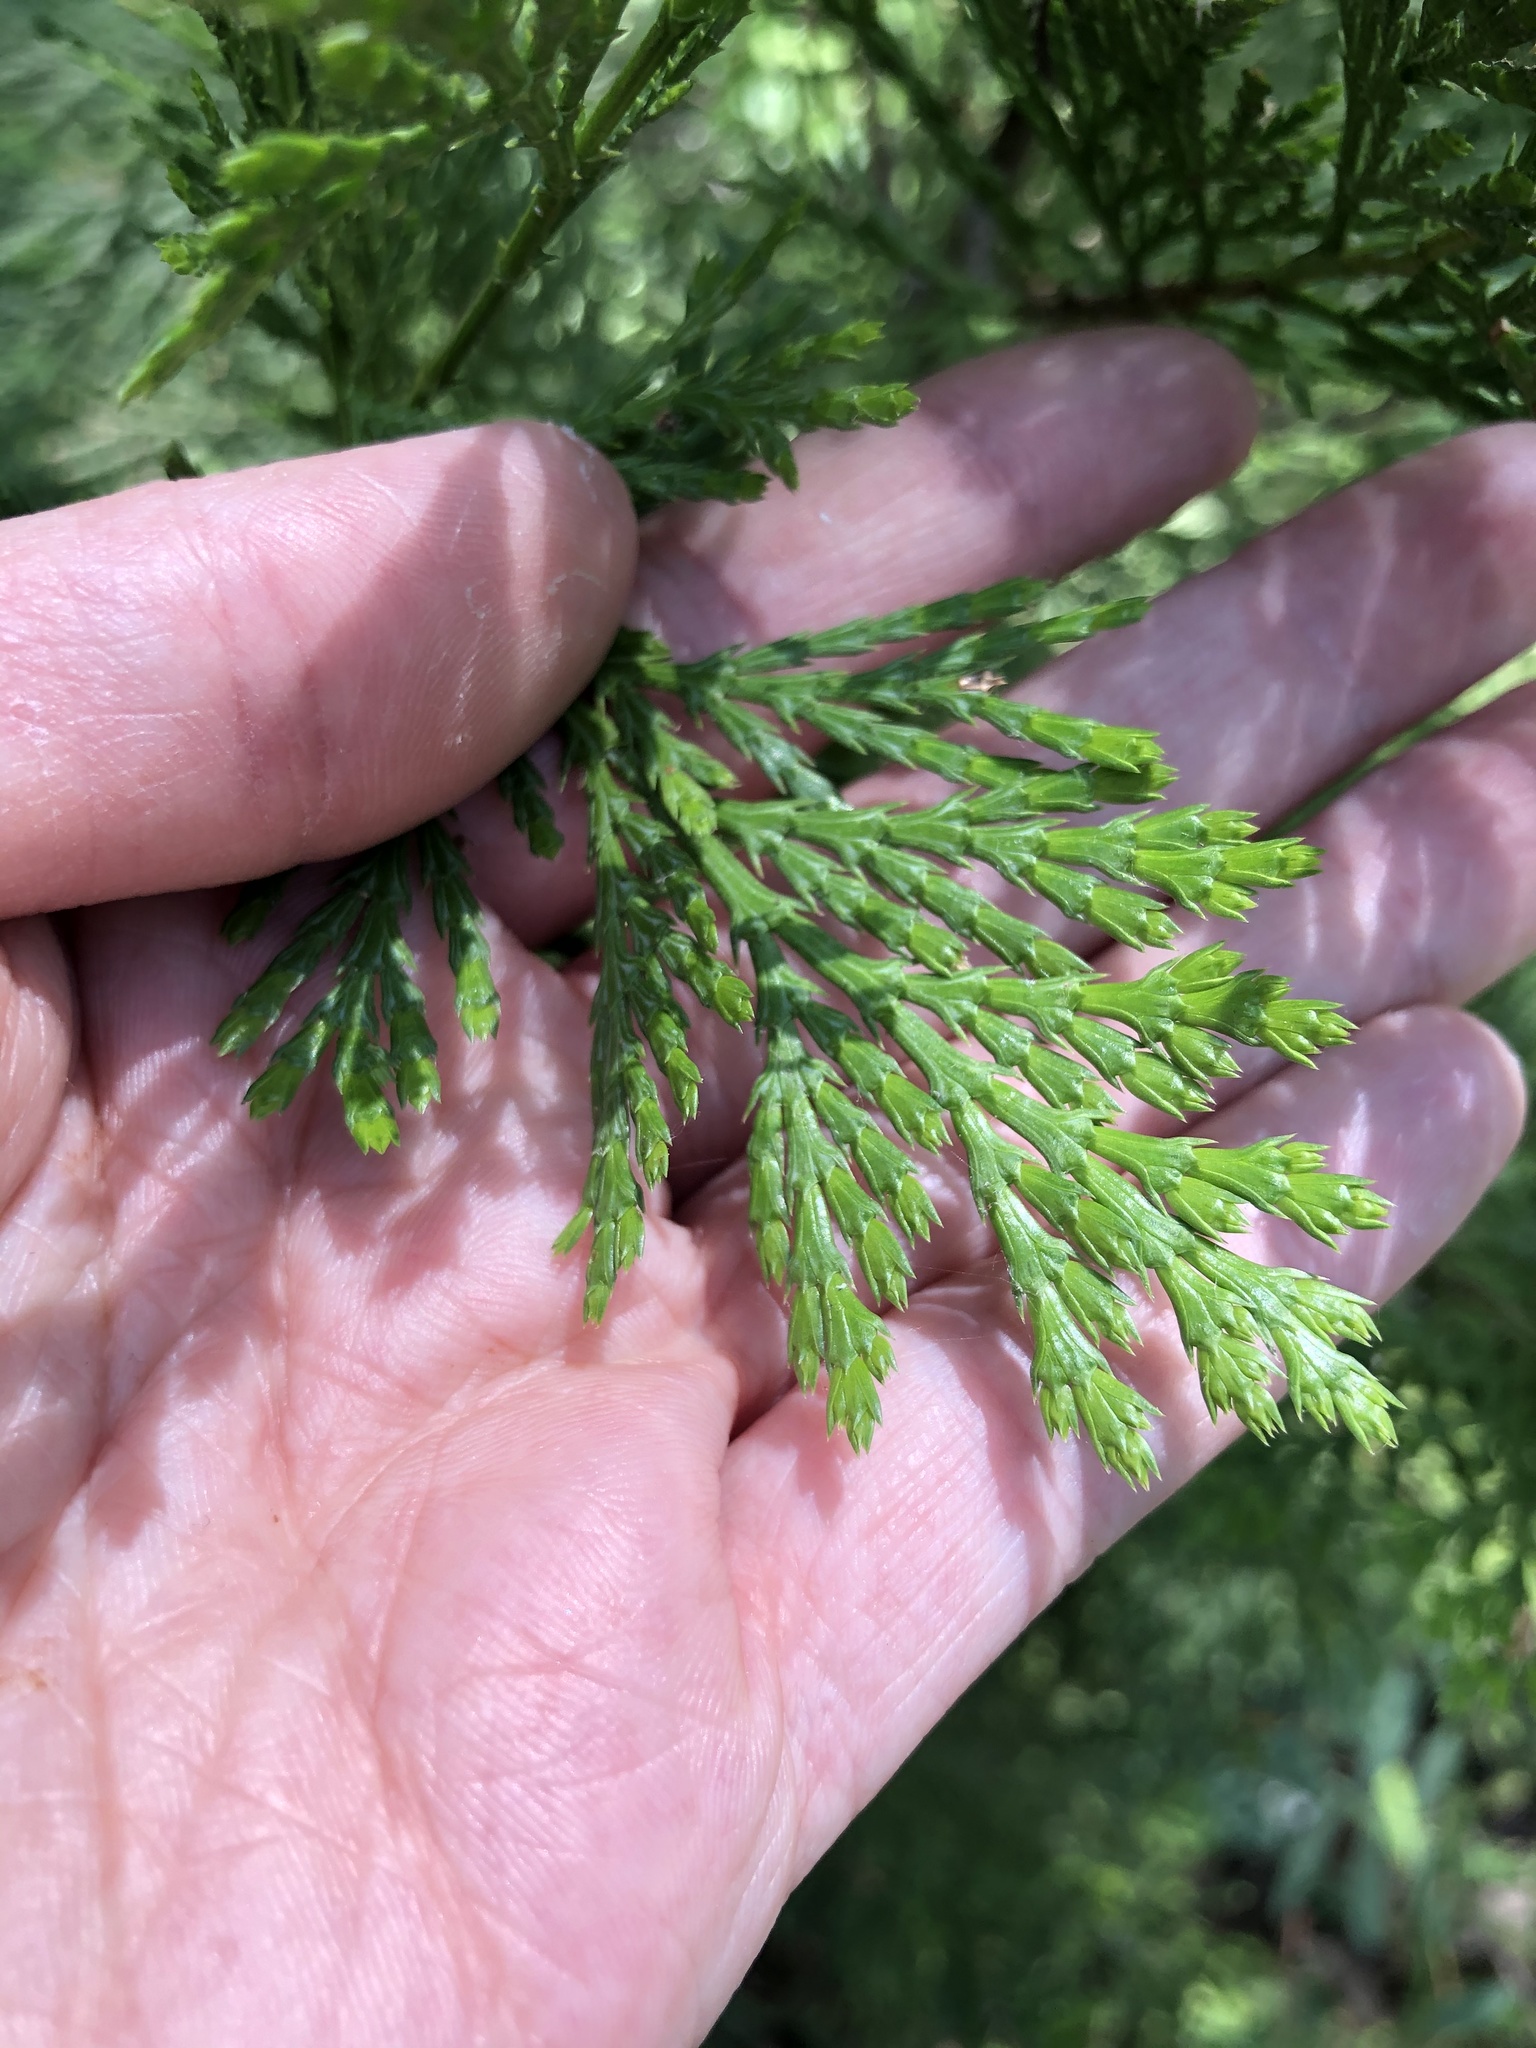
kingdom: Plantae
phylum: Tracheophyta
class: Pinopsida
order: Pinales
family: Cupressaceae
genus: Calocedrus
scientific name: Calocedrus decurrens
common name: Californian incense-cedar
